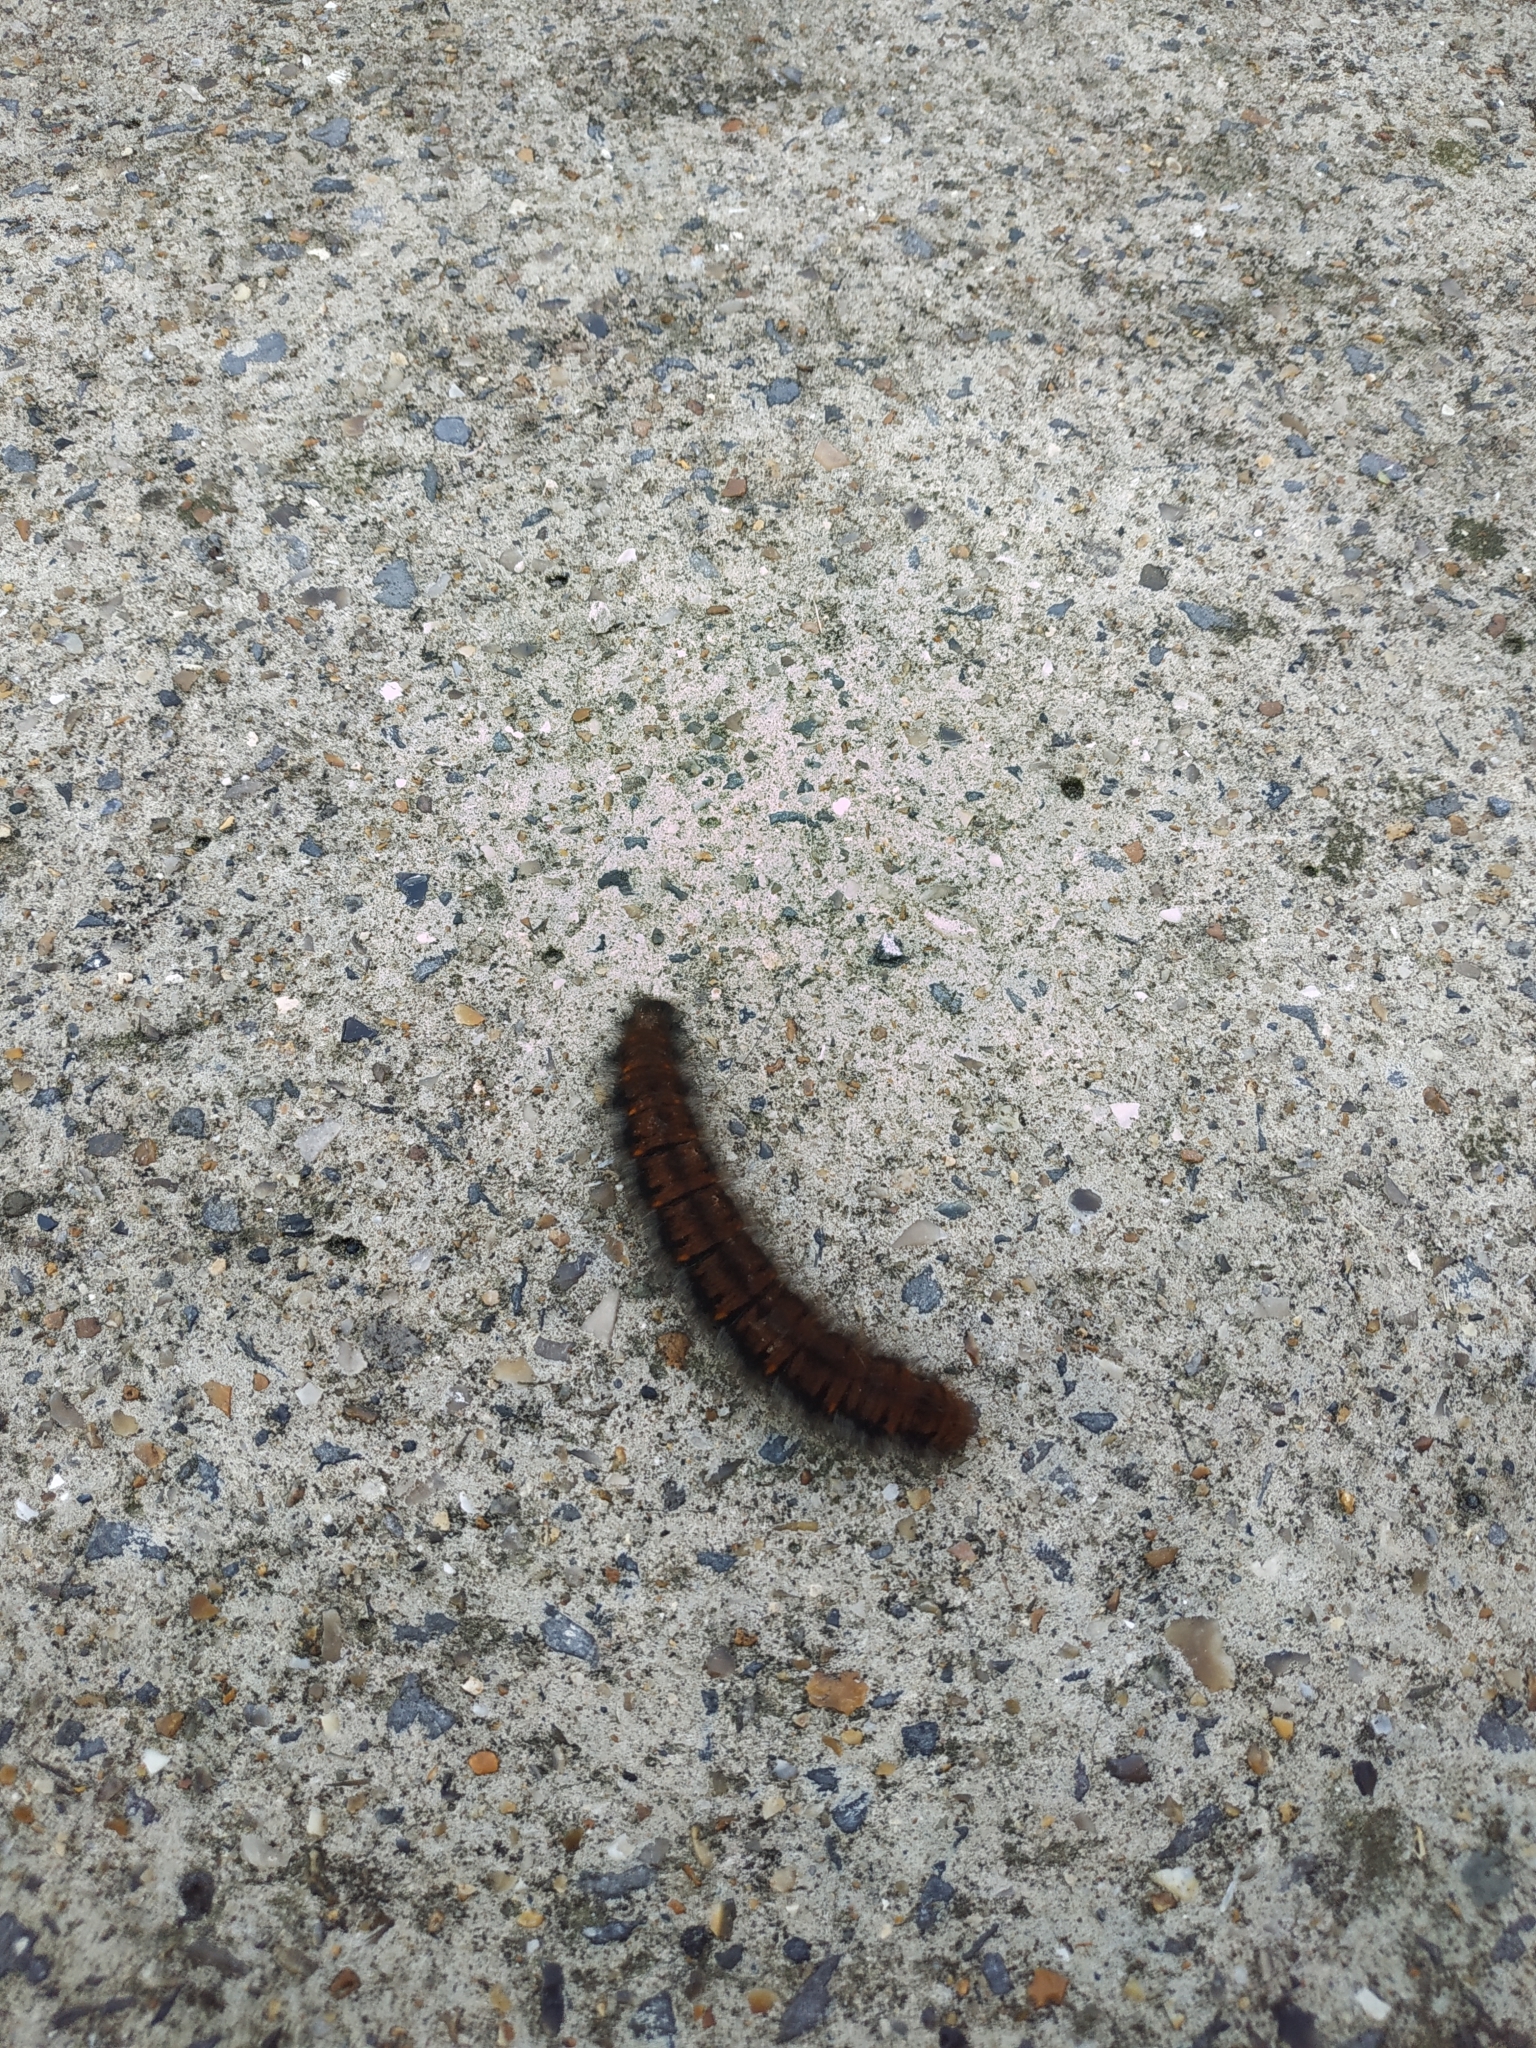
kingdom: Animalia
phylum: Arthropoda
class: Insecta
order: Lepidoptera
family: Lasiocampidae
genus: Macrothylacia
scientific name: Macrothylacia rubi
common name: Fox moth
